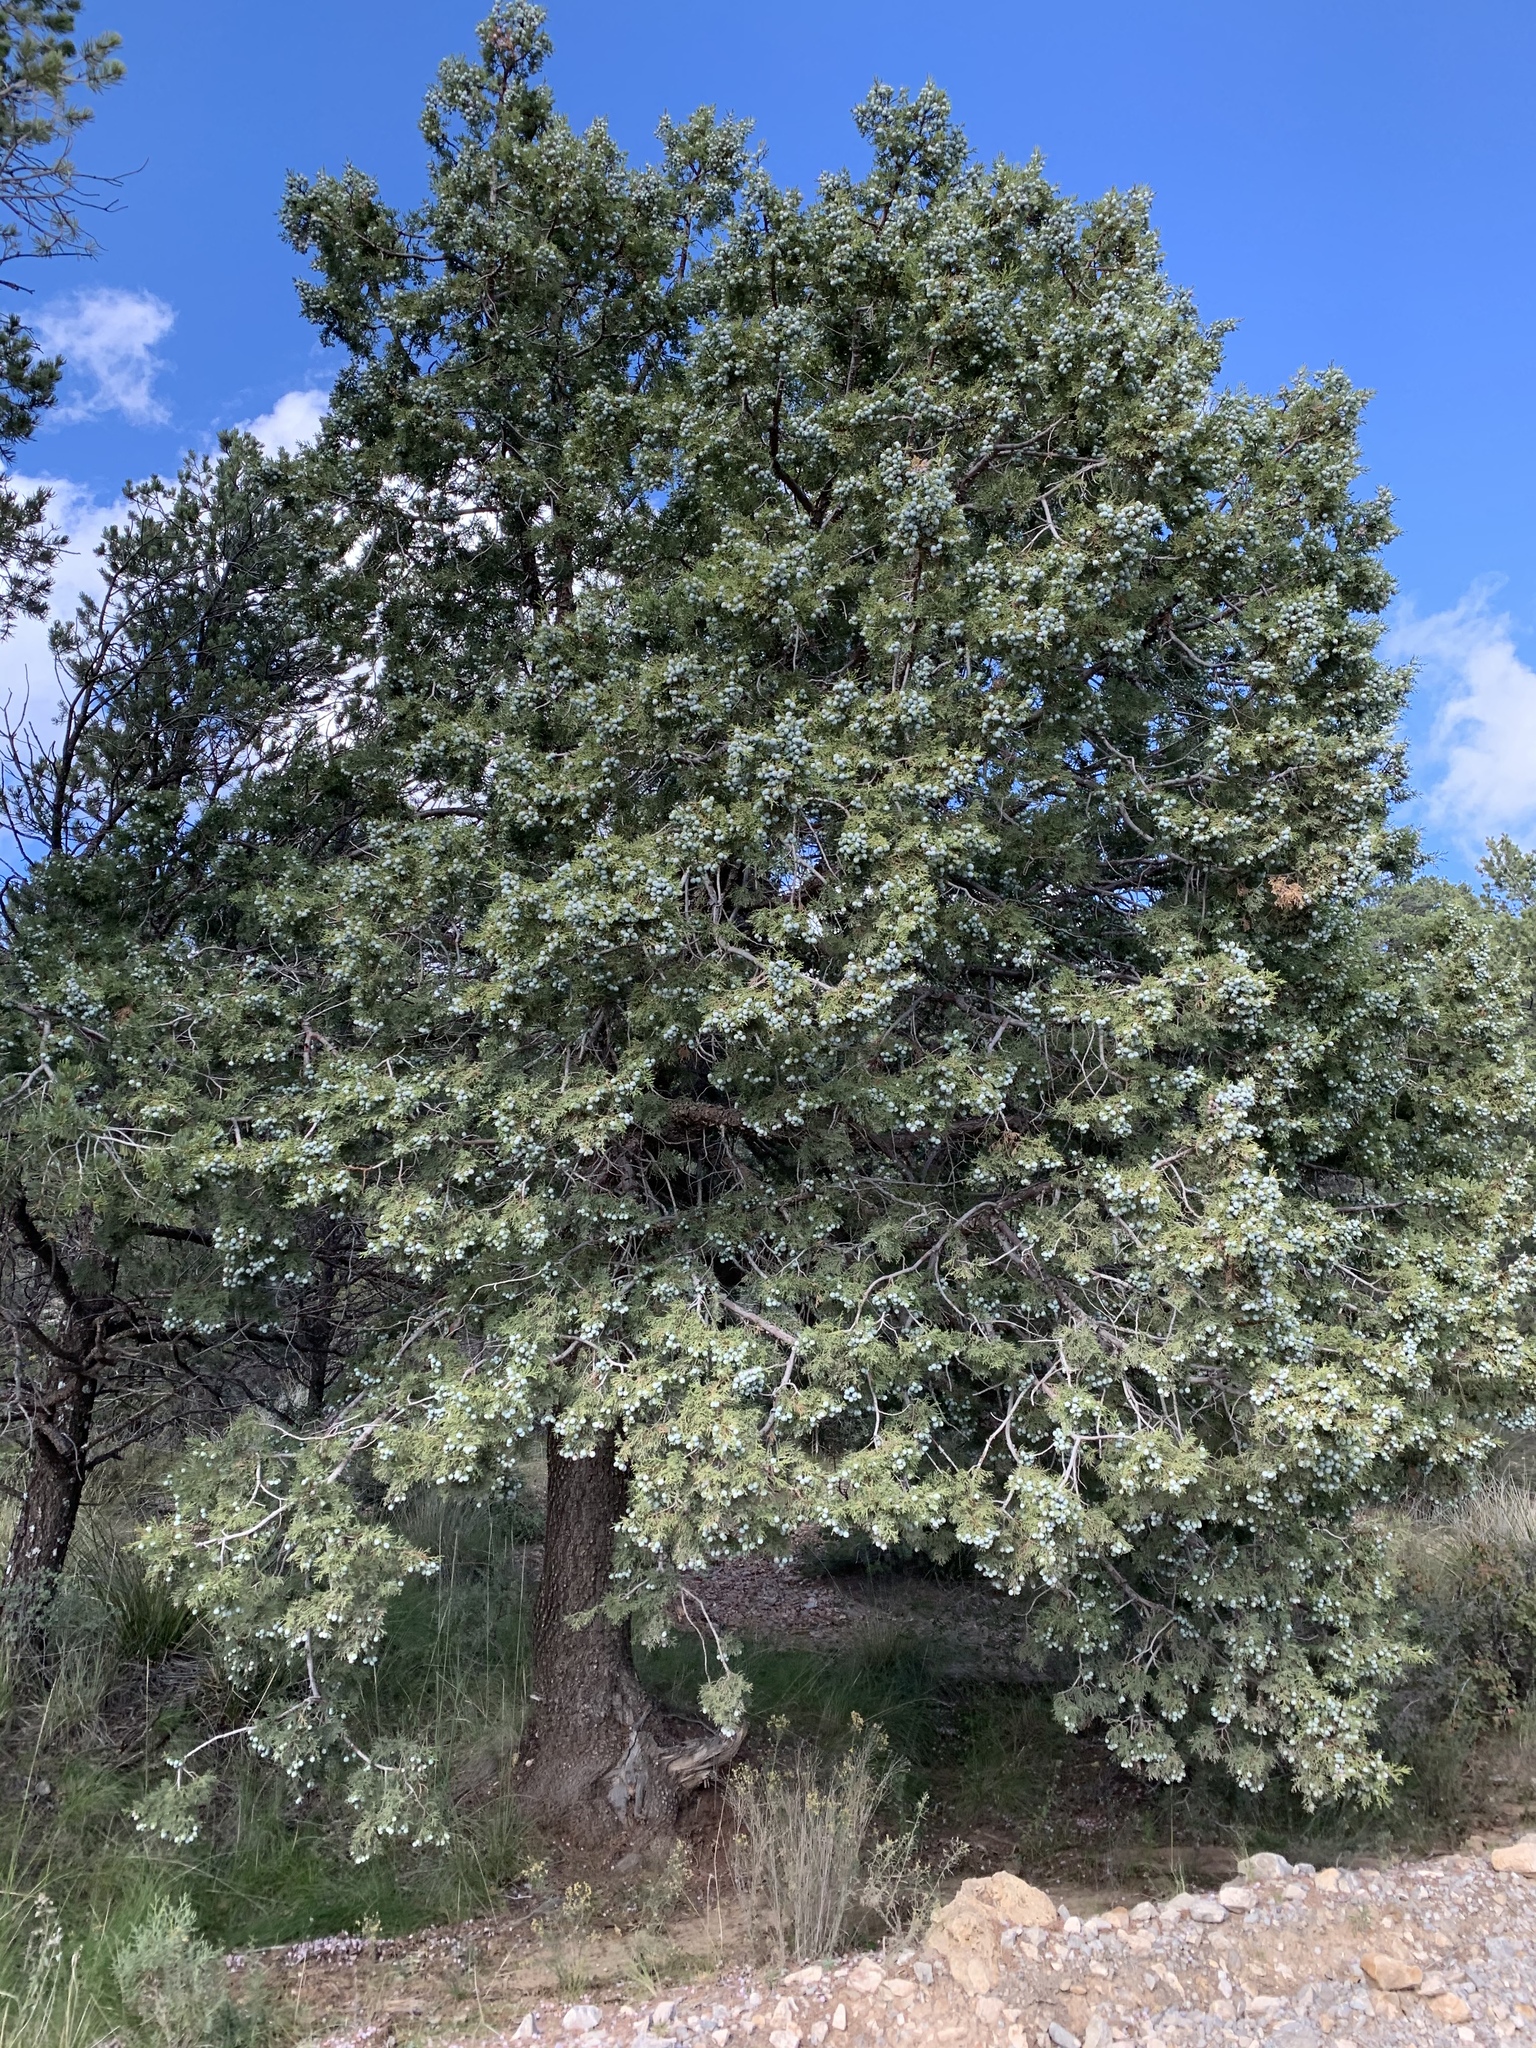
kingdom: Plantae
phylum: Tracheophyta
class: Pinopsida
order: Pinales
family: Cupressaceae
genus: Juniperus
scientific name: Juniperus deppeana
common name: Alligator juniper
